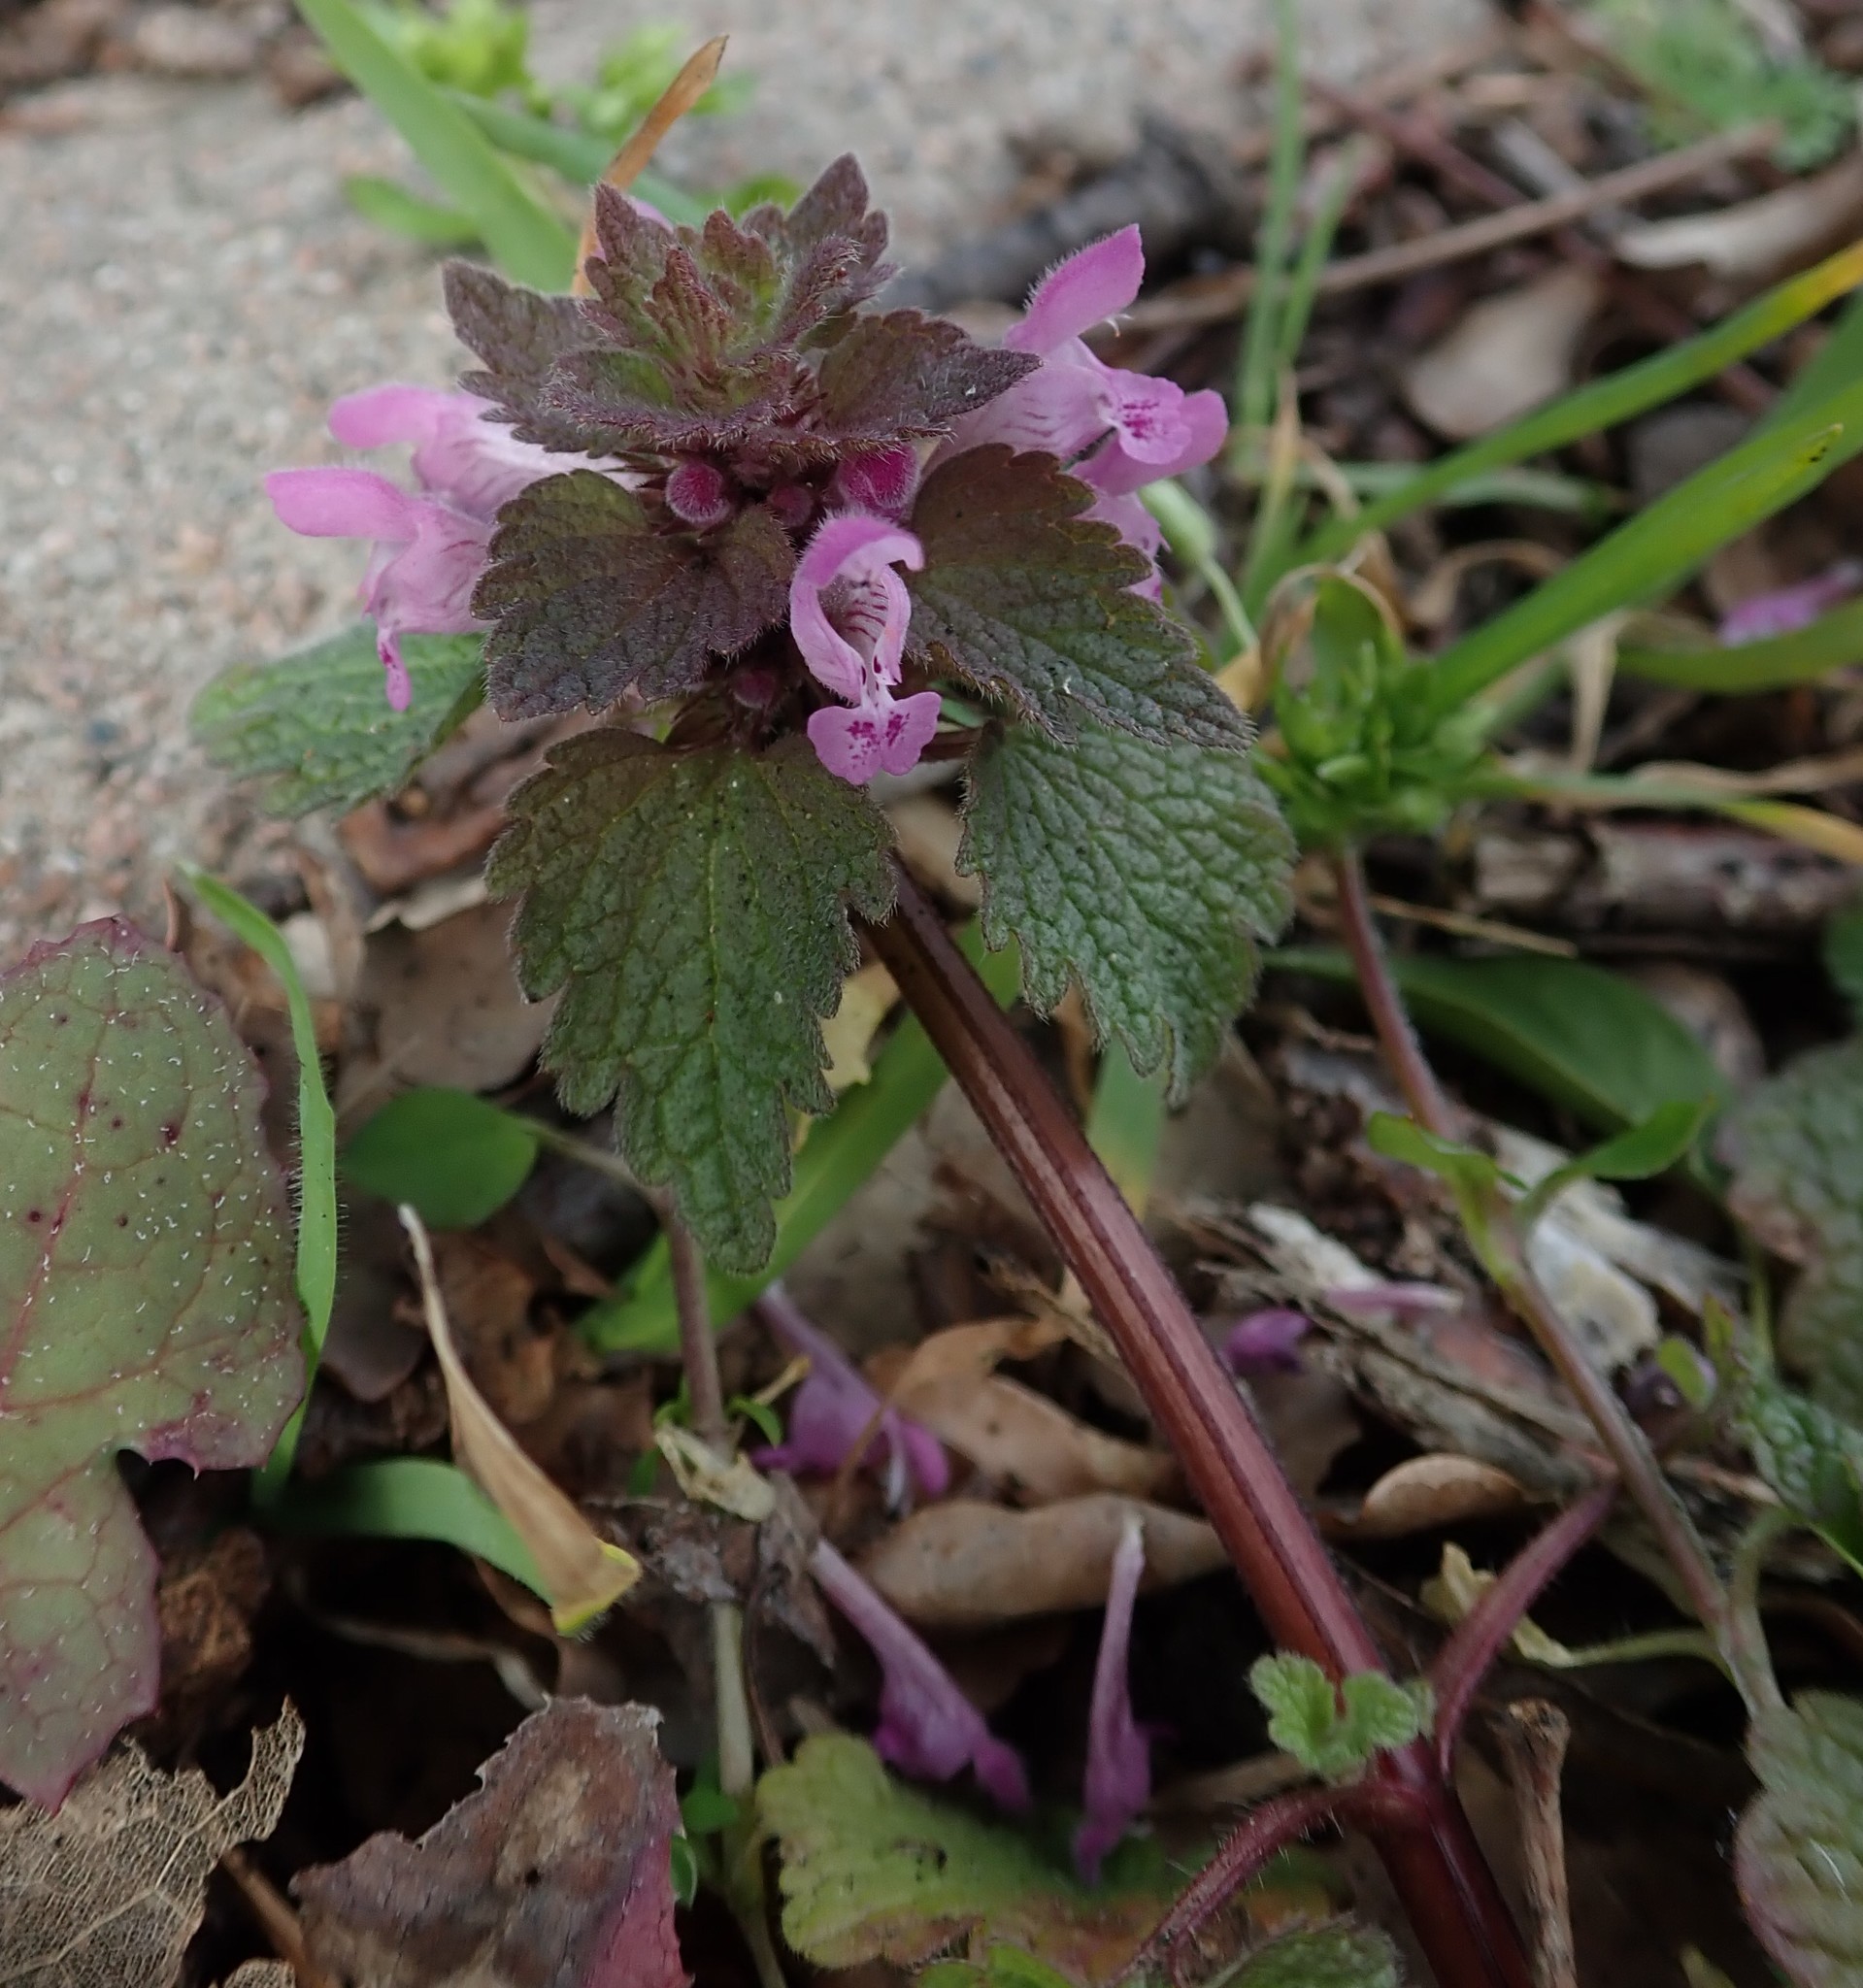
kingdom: Plantae
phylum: Tracheophyta
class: Magnoliopsida
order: Lamiales
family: Lamiaceae
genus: Lamium
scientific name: Lamium purpureum
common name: Red dead-nettle
